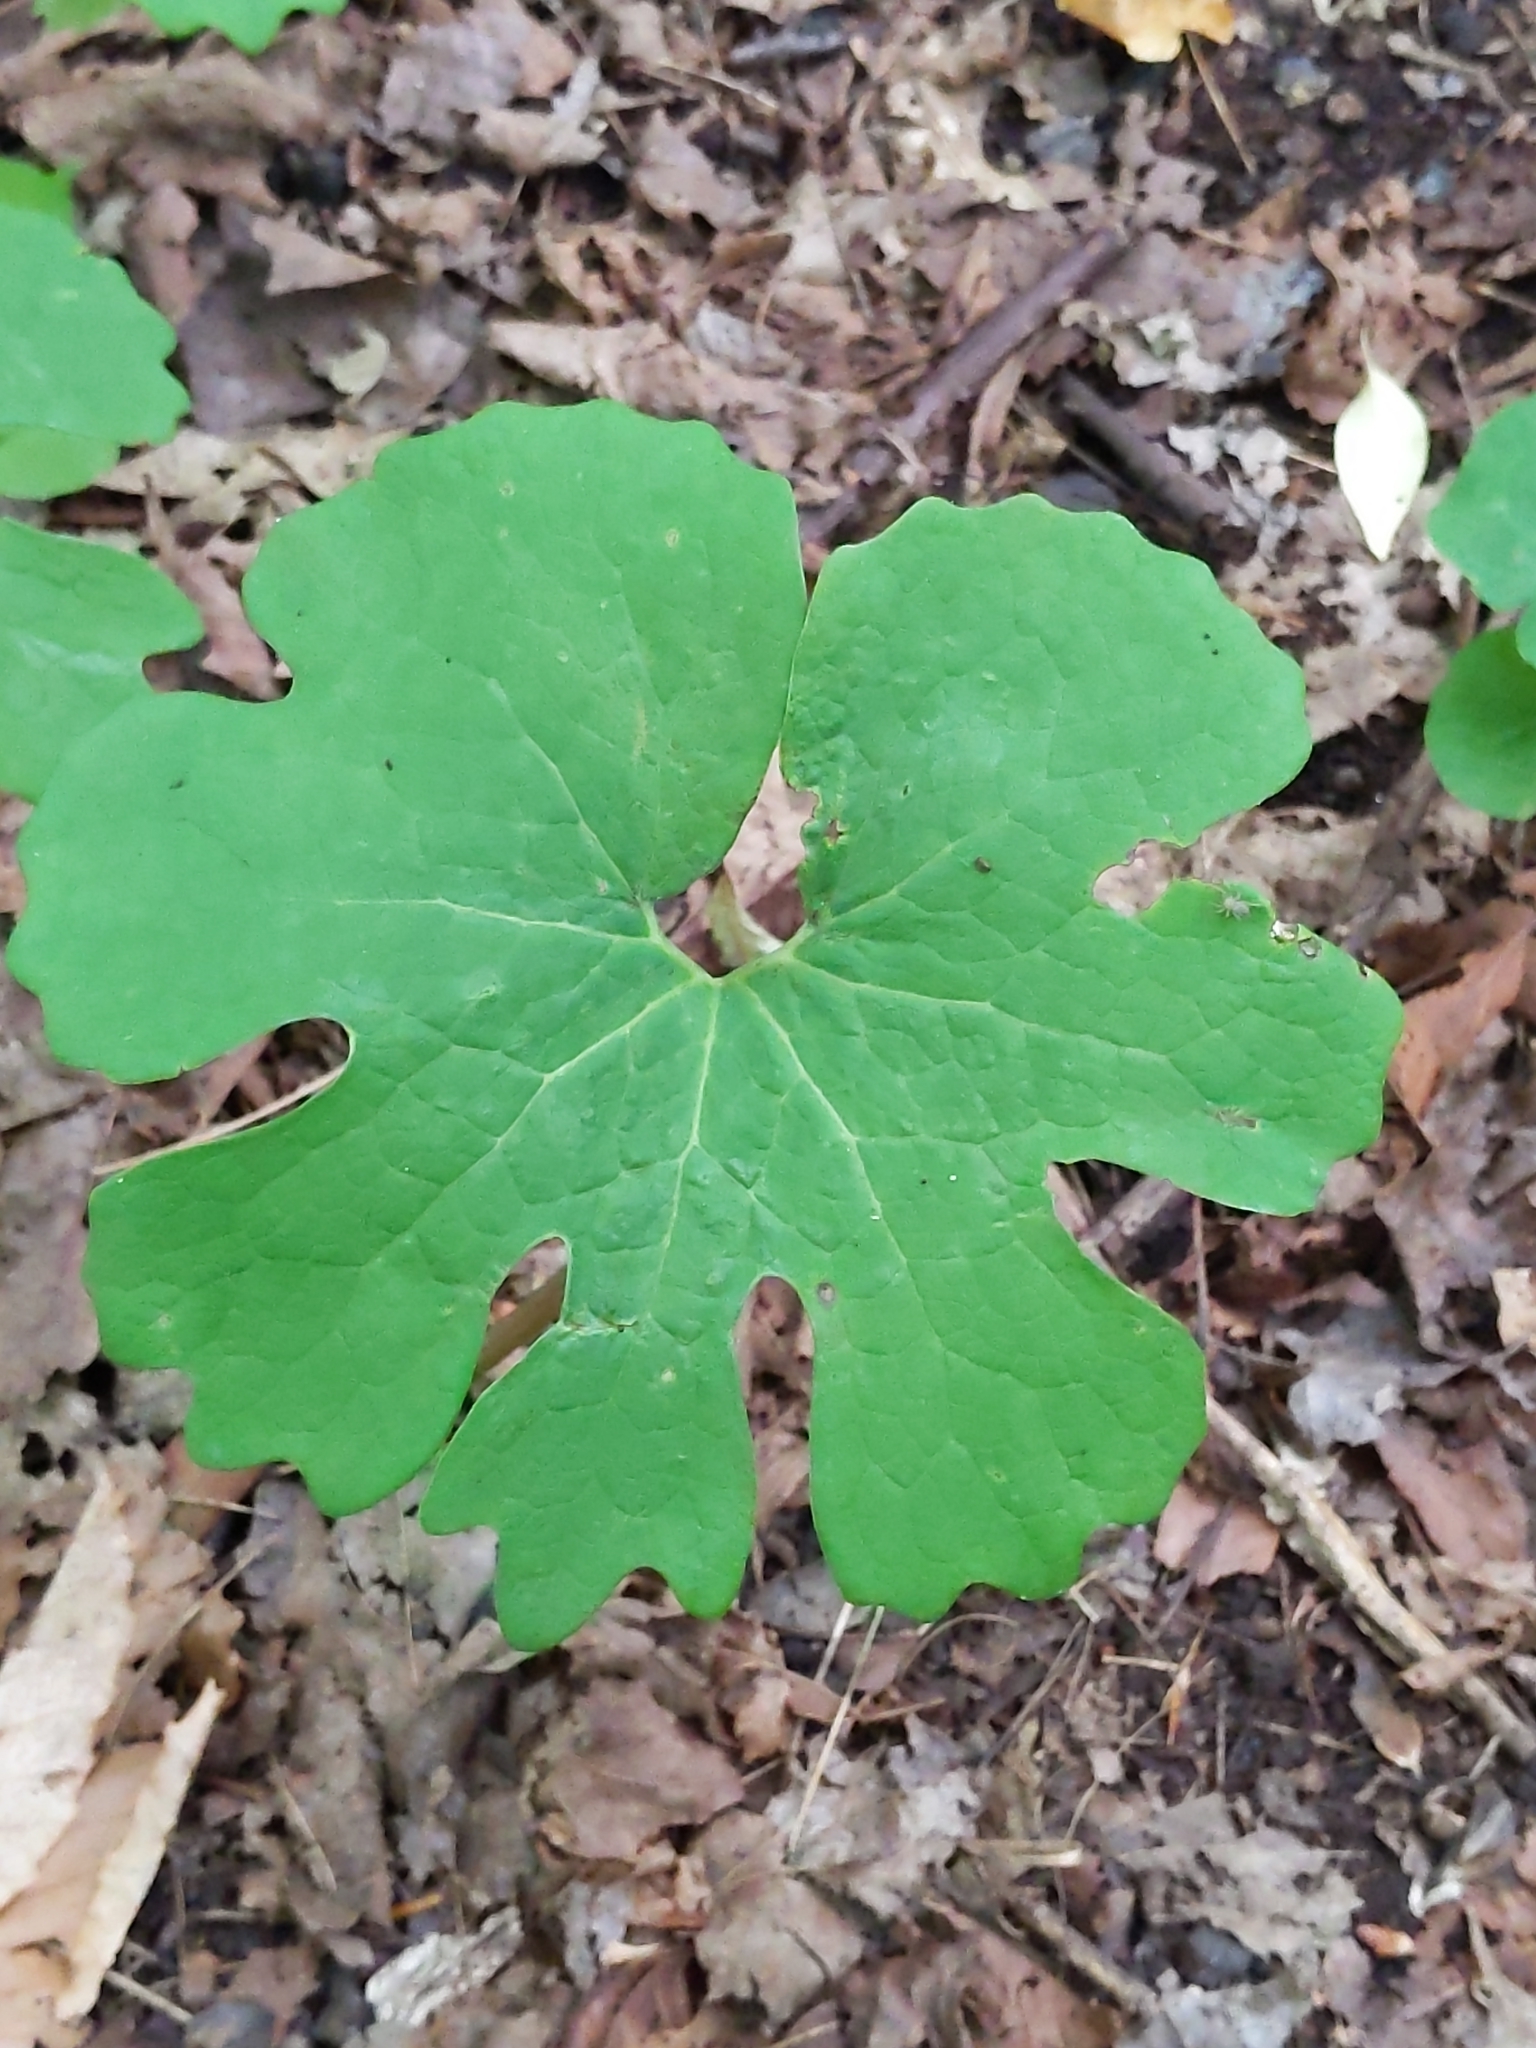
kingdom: Plantae
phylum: Tracheophyta
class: Magnoliopsida
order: Ranunculales
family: Papaveraceae
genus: Sanguinaria
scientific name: Sanguinaria canadensis
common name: Bloodroot
